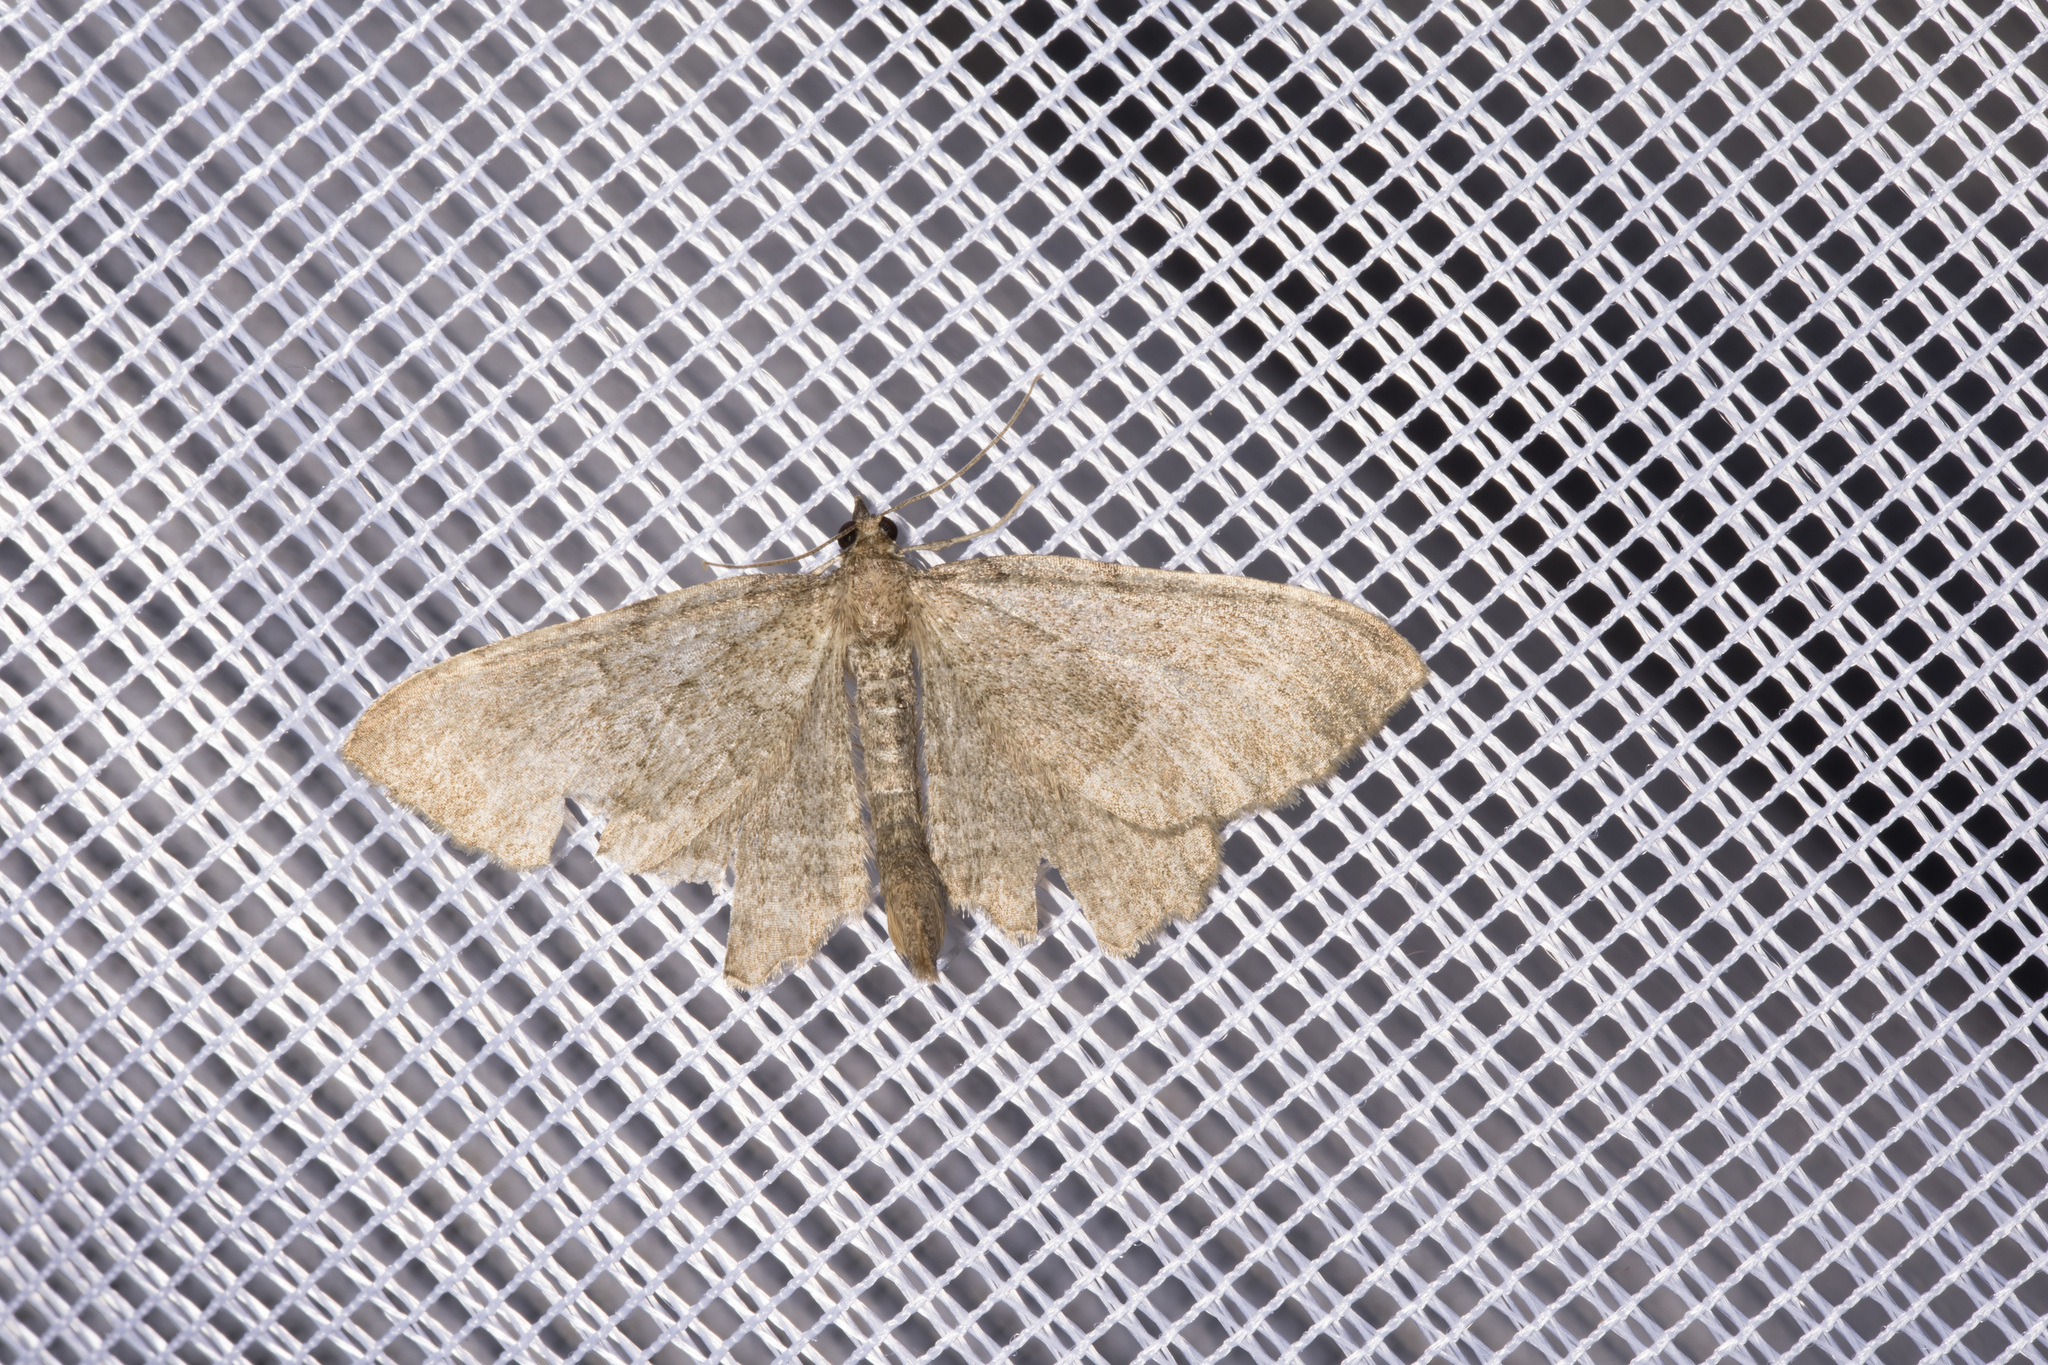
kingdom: Animalia
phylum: Arthropoda
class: Insecta
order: Lepidoptera
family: Geometridae
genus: Philereme
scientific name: Philereme vetulata
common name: Brown scallop
